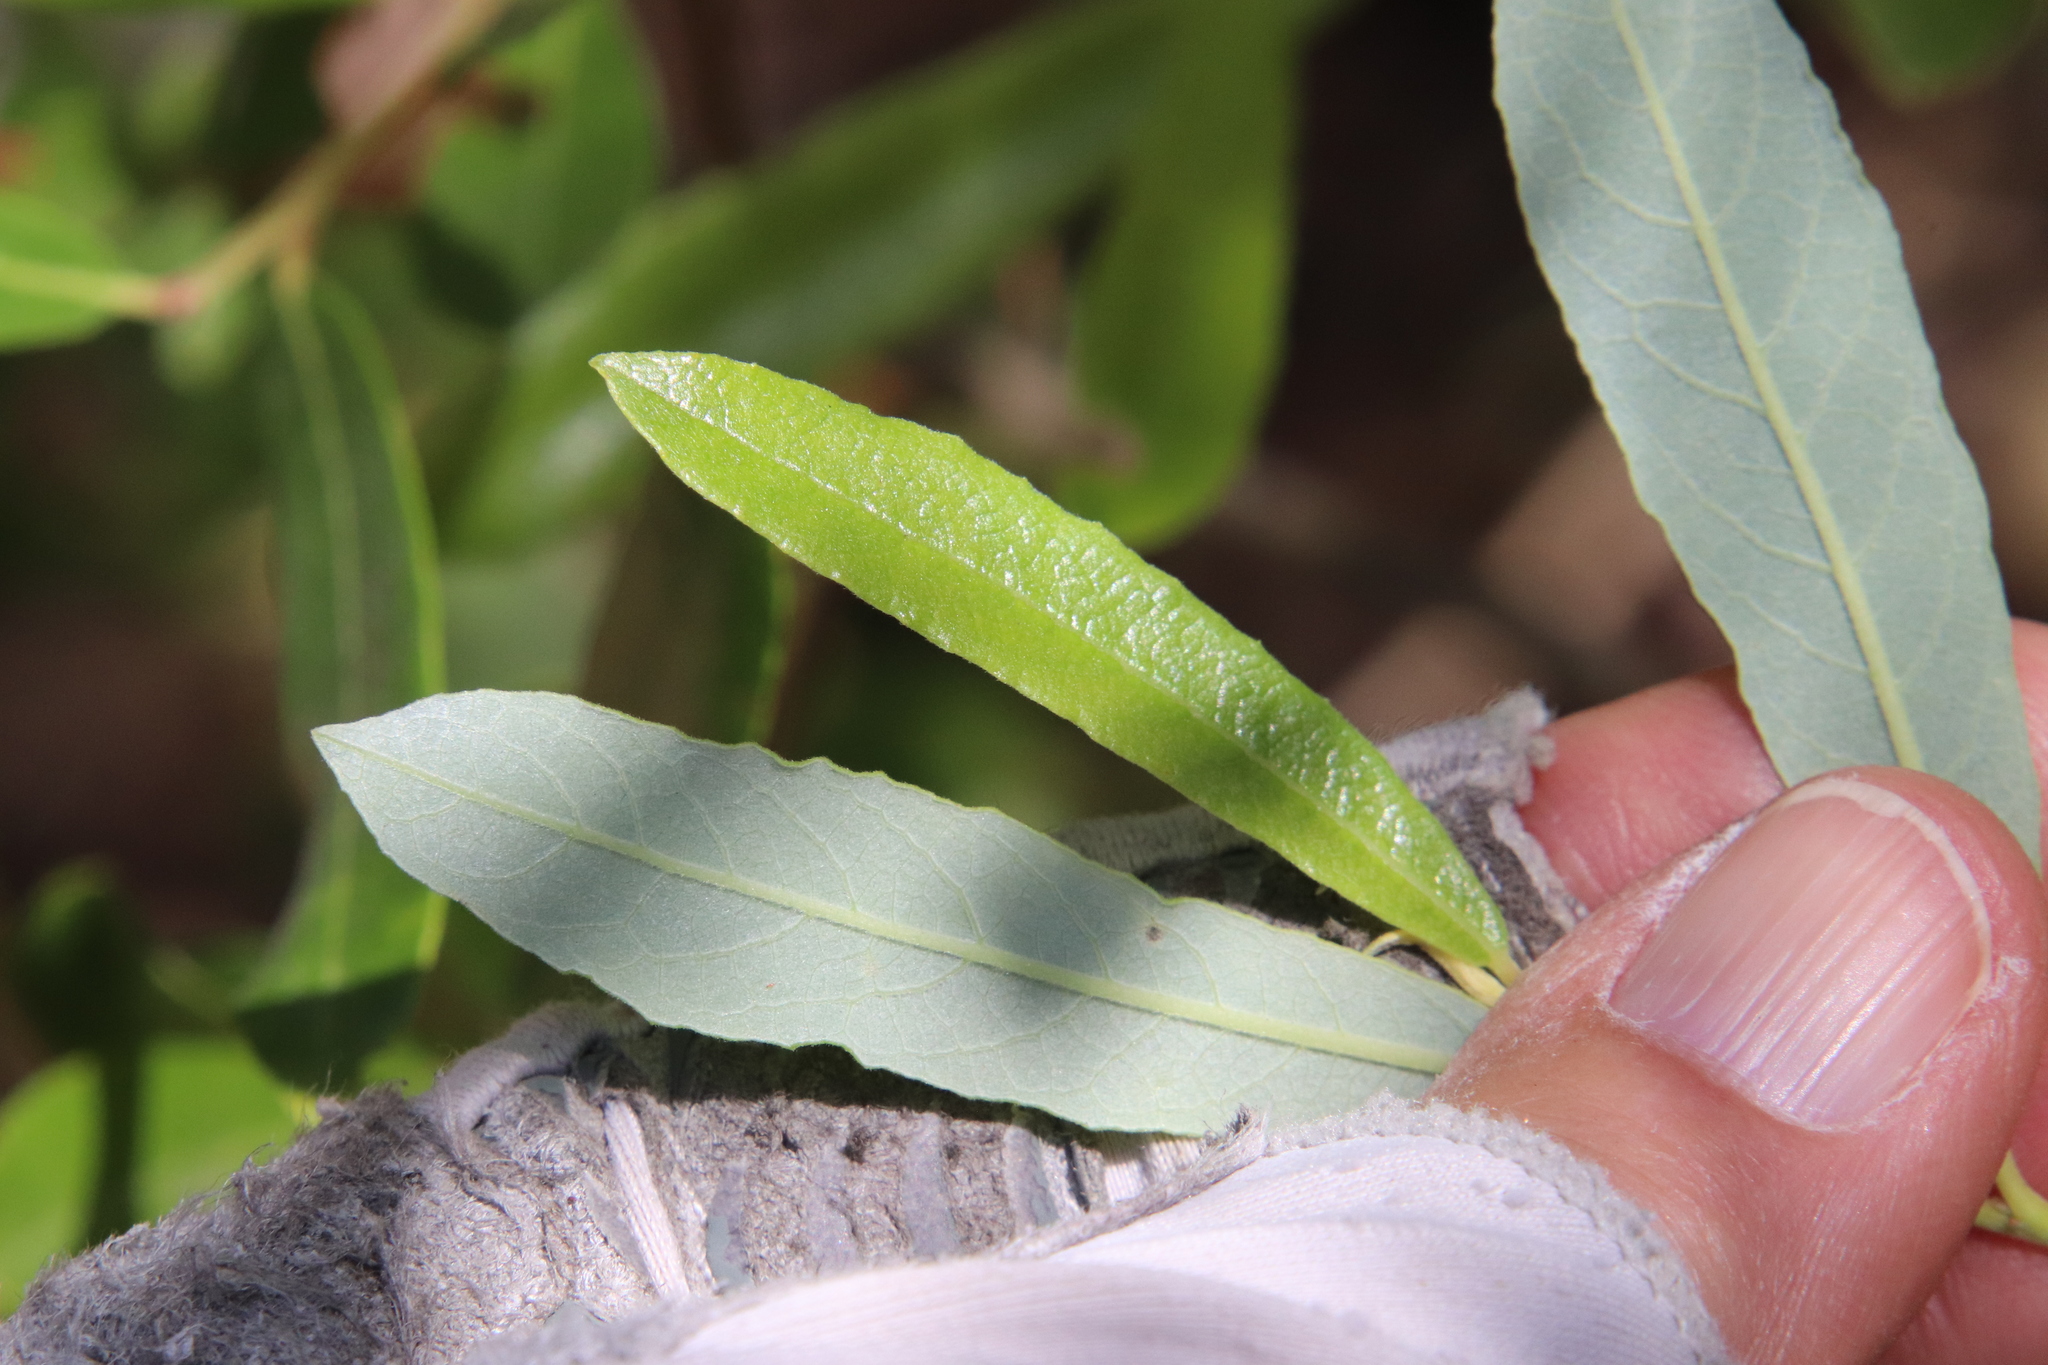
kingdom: Plantae
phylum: Tracheophyta
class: Magnoliopsida
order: Malpighiales
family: Salicaceae
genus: Salix
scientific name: Salix lasiolepis
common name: Arroyo willow
